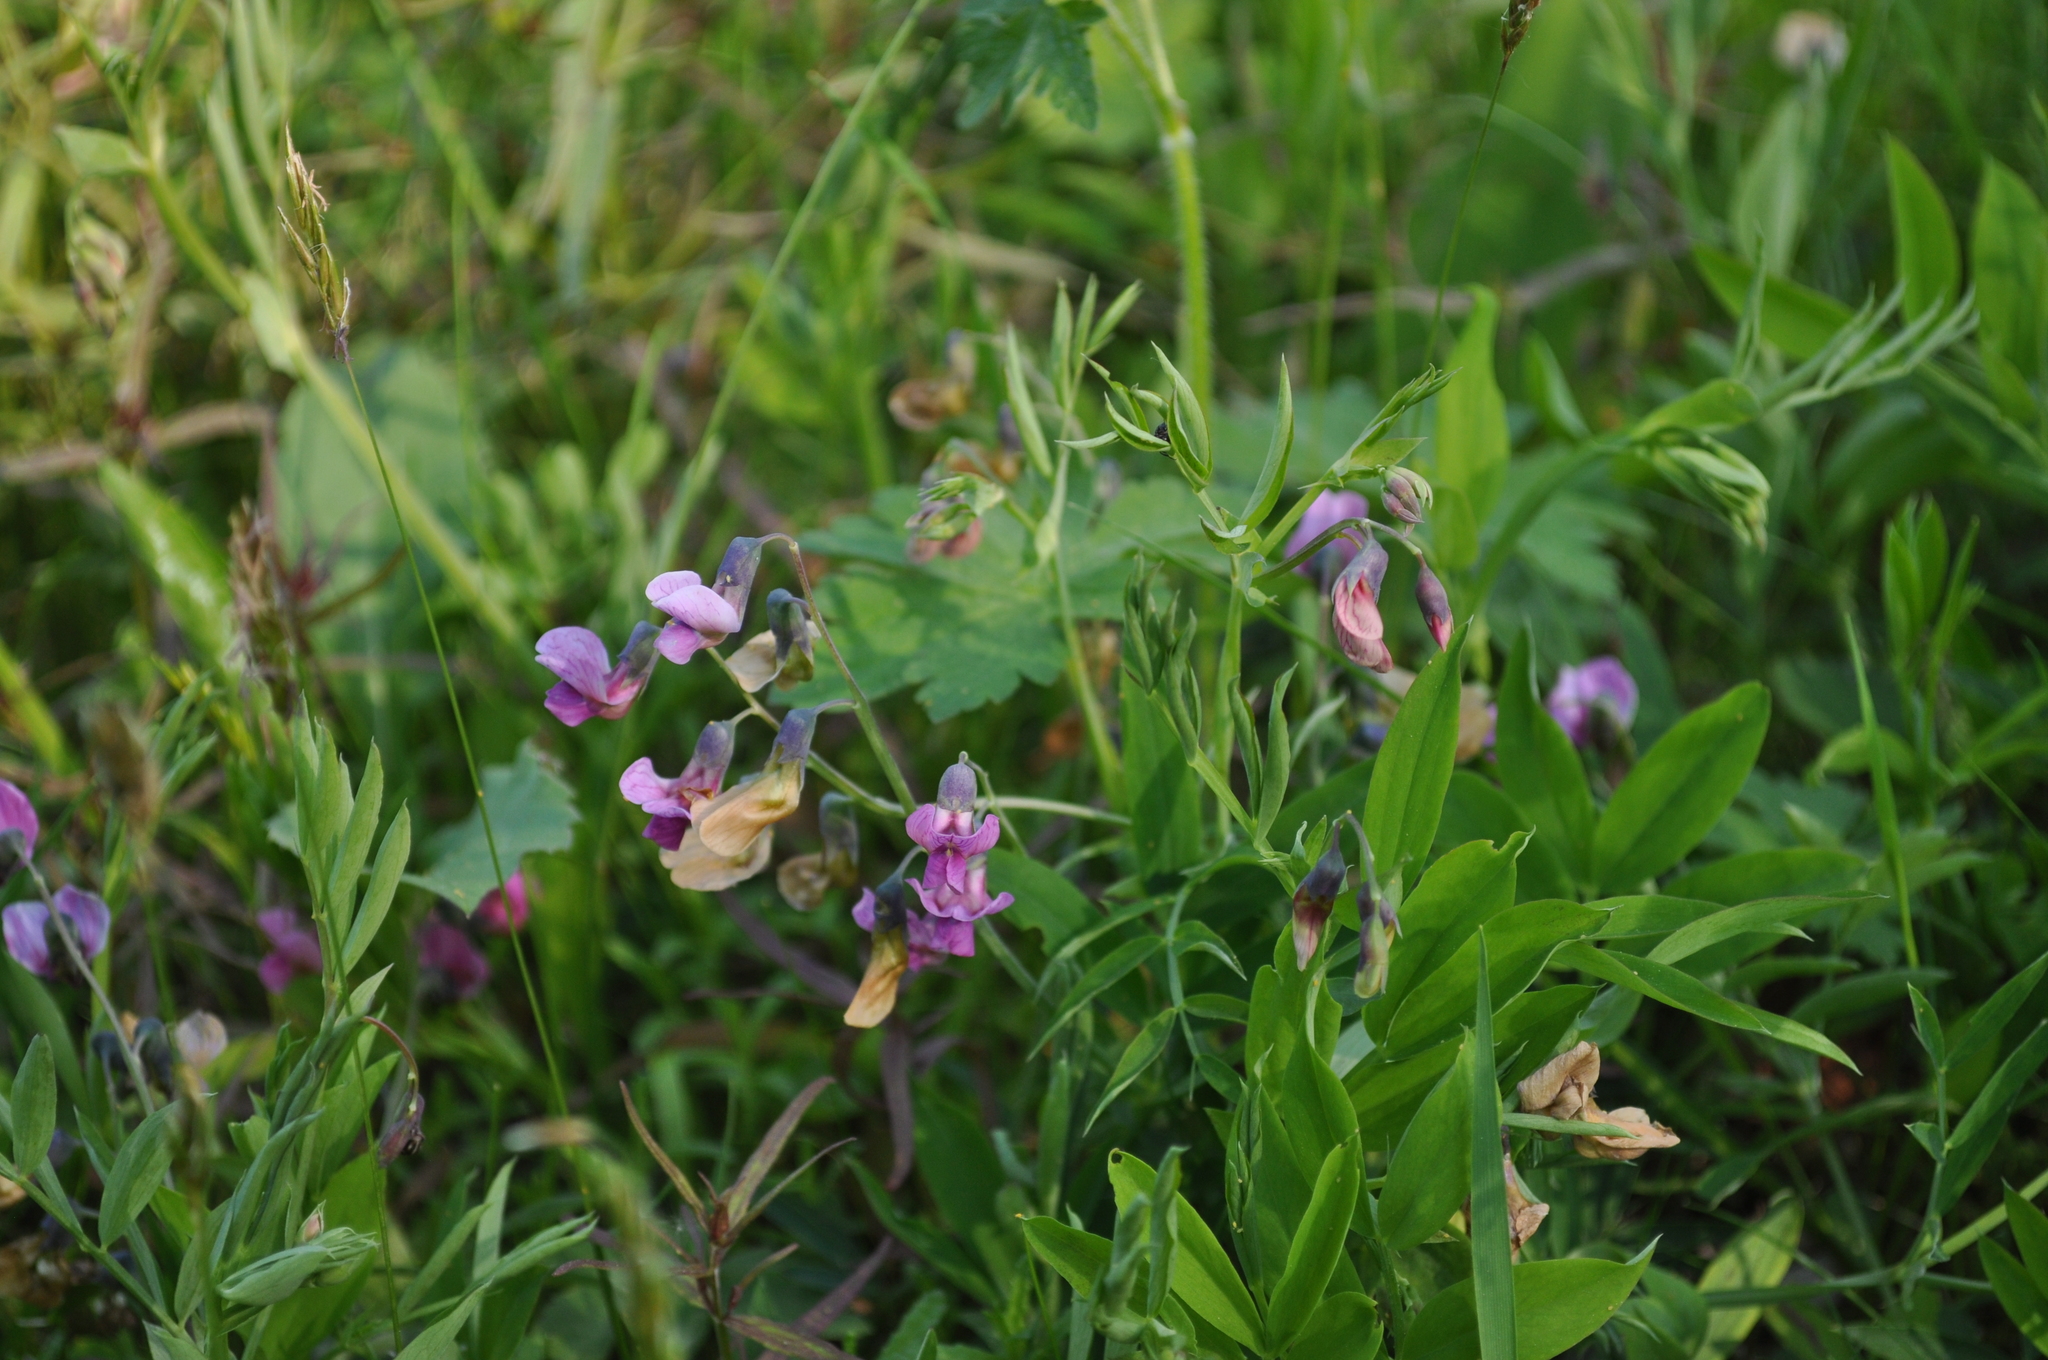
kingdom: Plantae
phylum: Tracheophyta
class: Magnoliopsida
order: Fabales
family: Fabaceae
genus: Lathyrus
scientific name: Lathyrus linifolius
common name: Bitter-vetch
